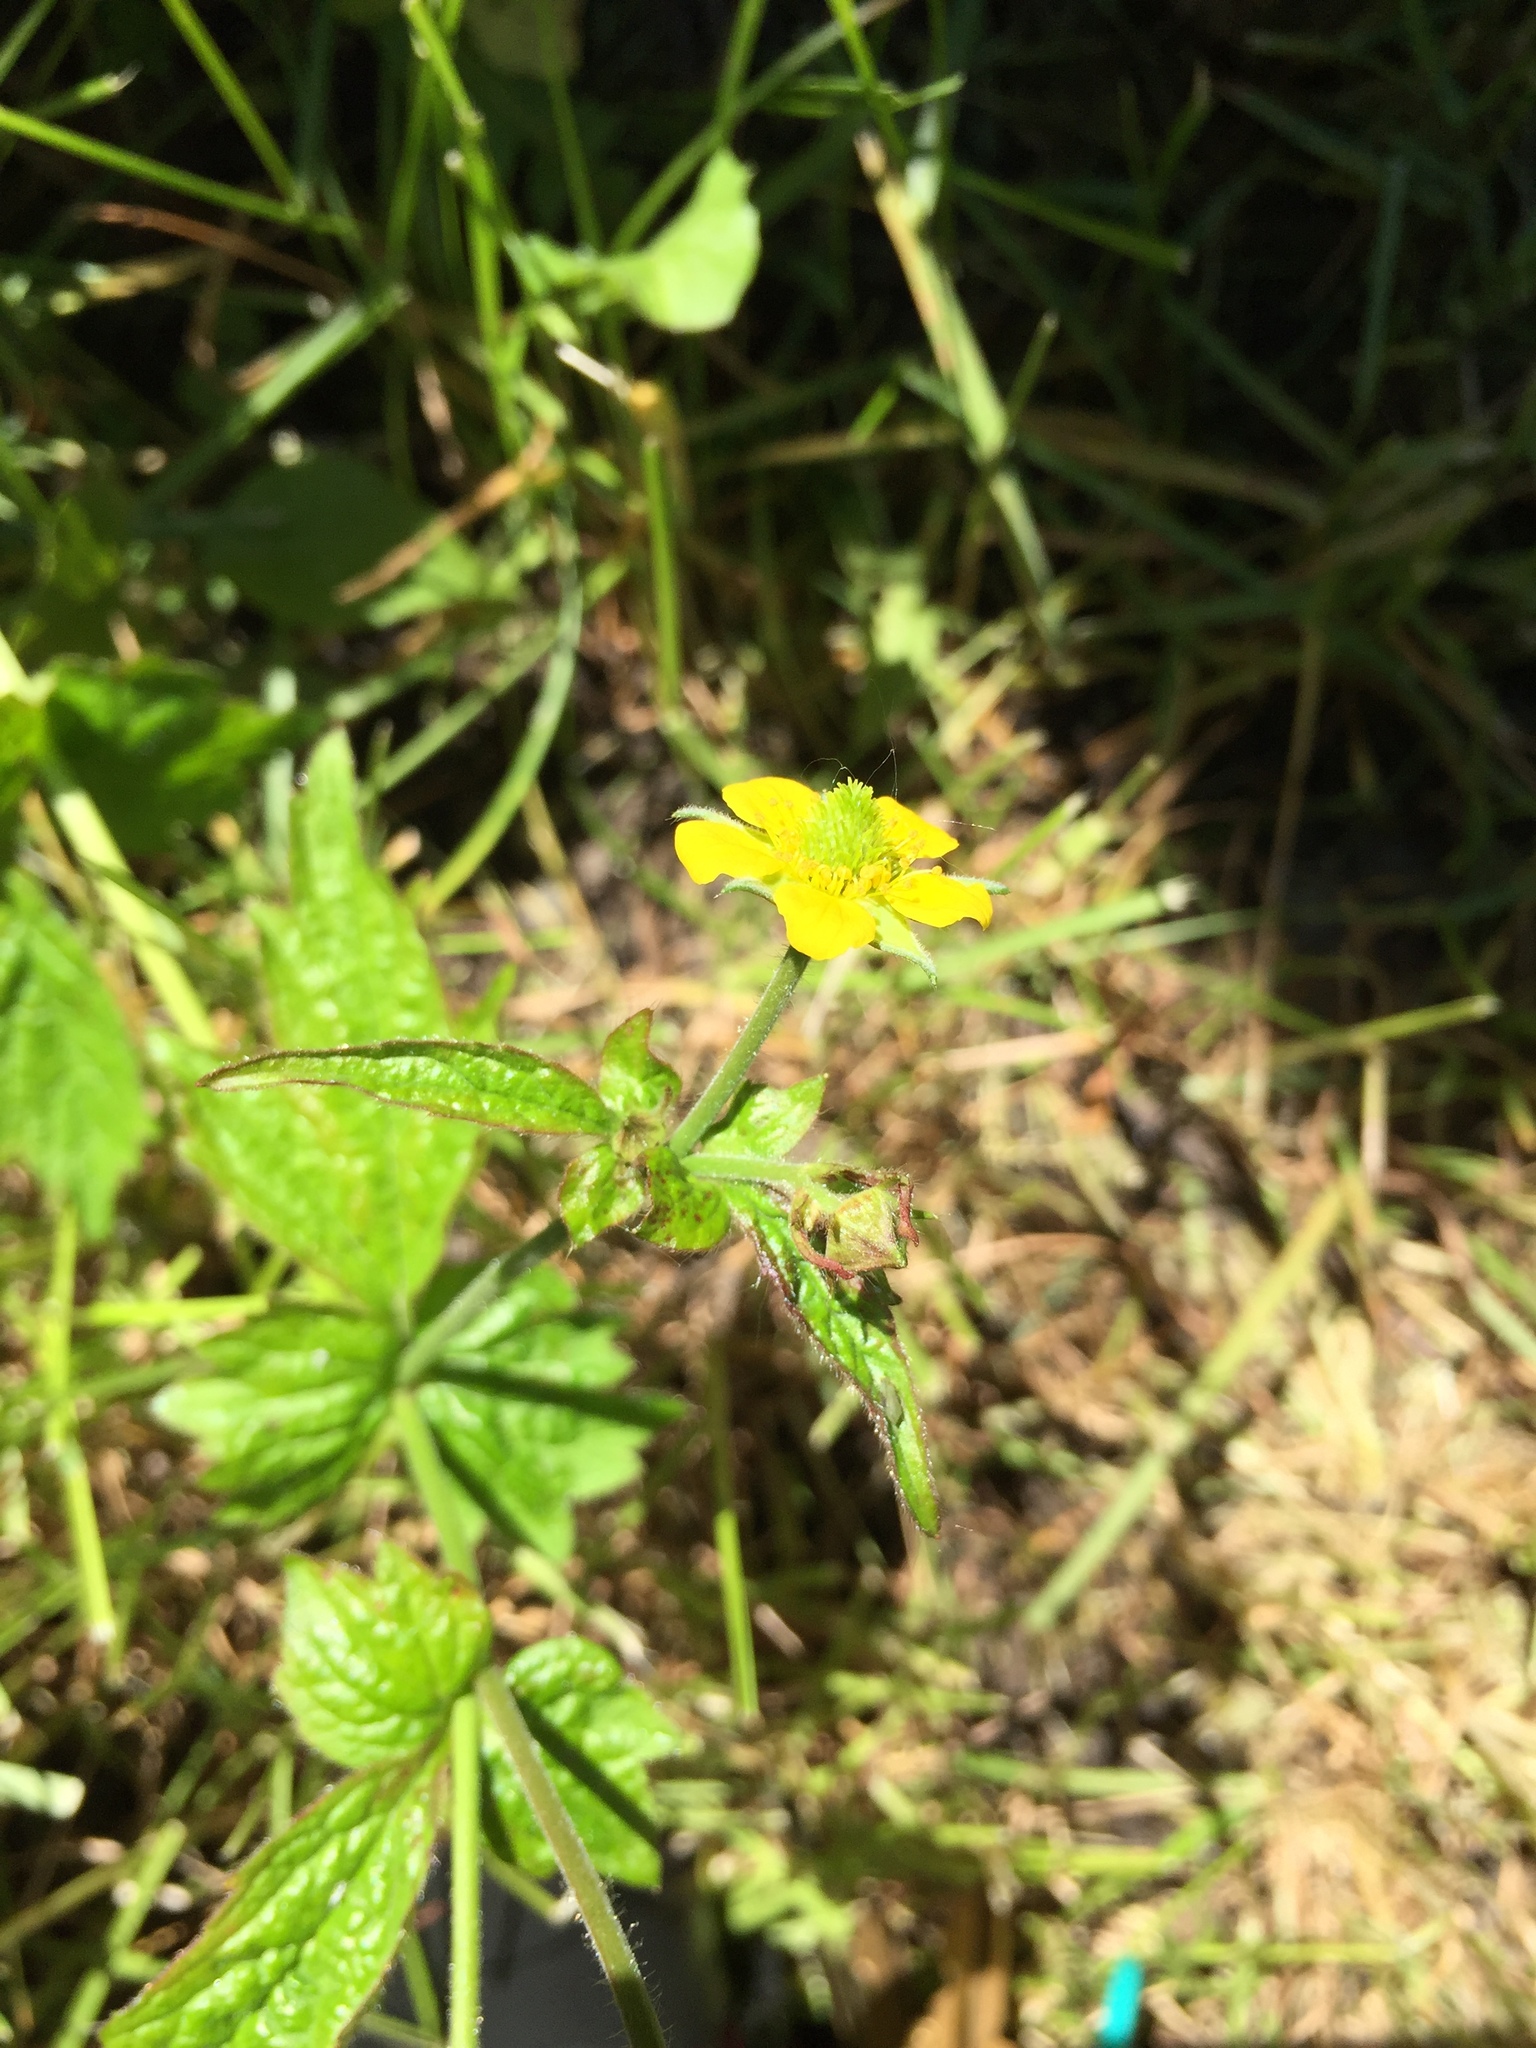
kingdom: Plantae
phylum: Tracheophyta
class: Magnoliopsida
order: Rosales
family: Rosaceae
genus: Geum
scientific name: Geum urbanum
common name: Wood avens
